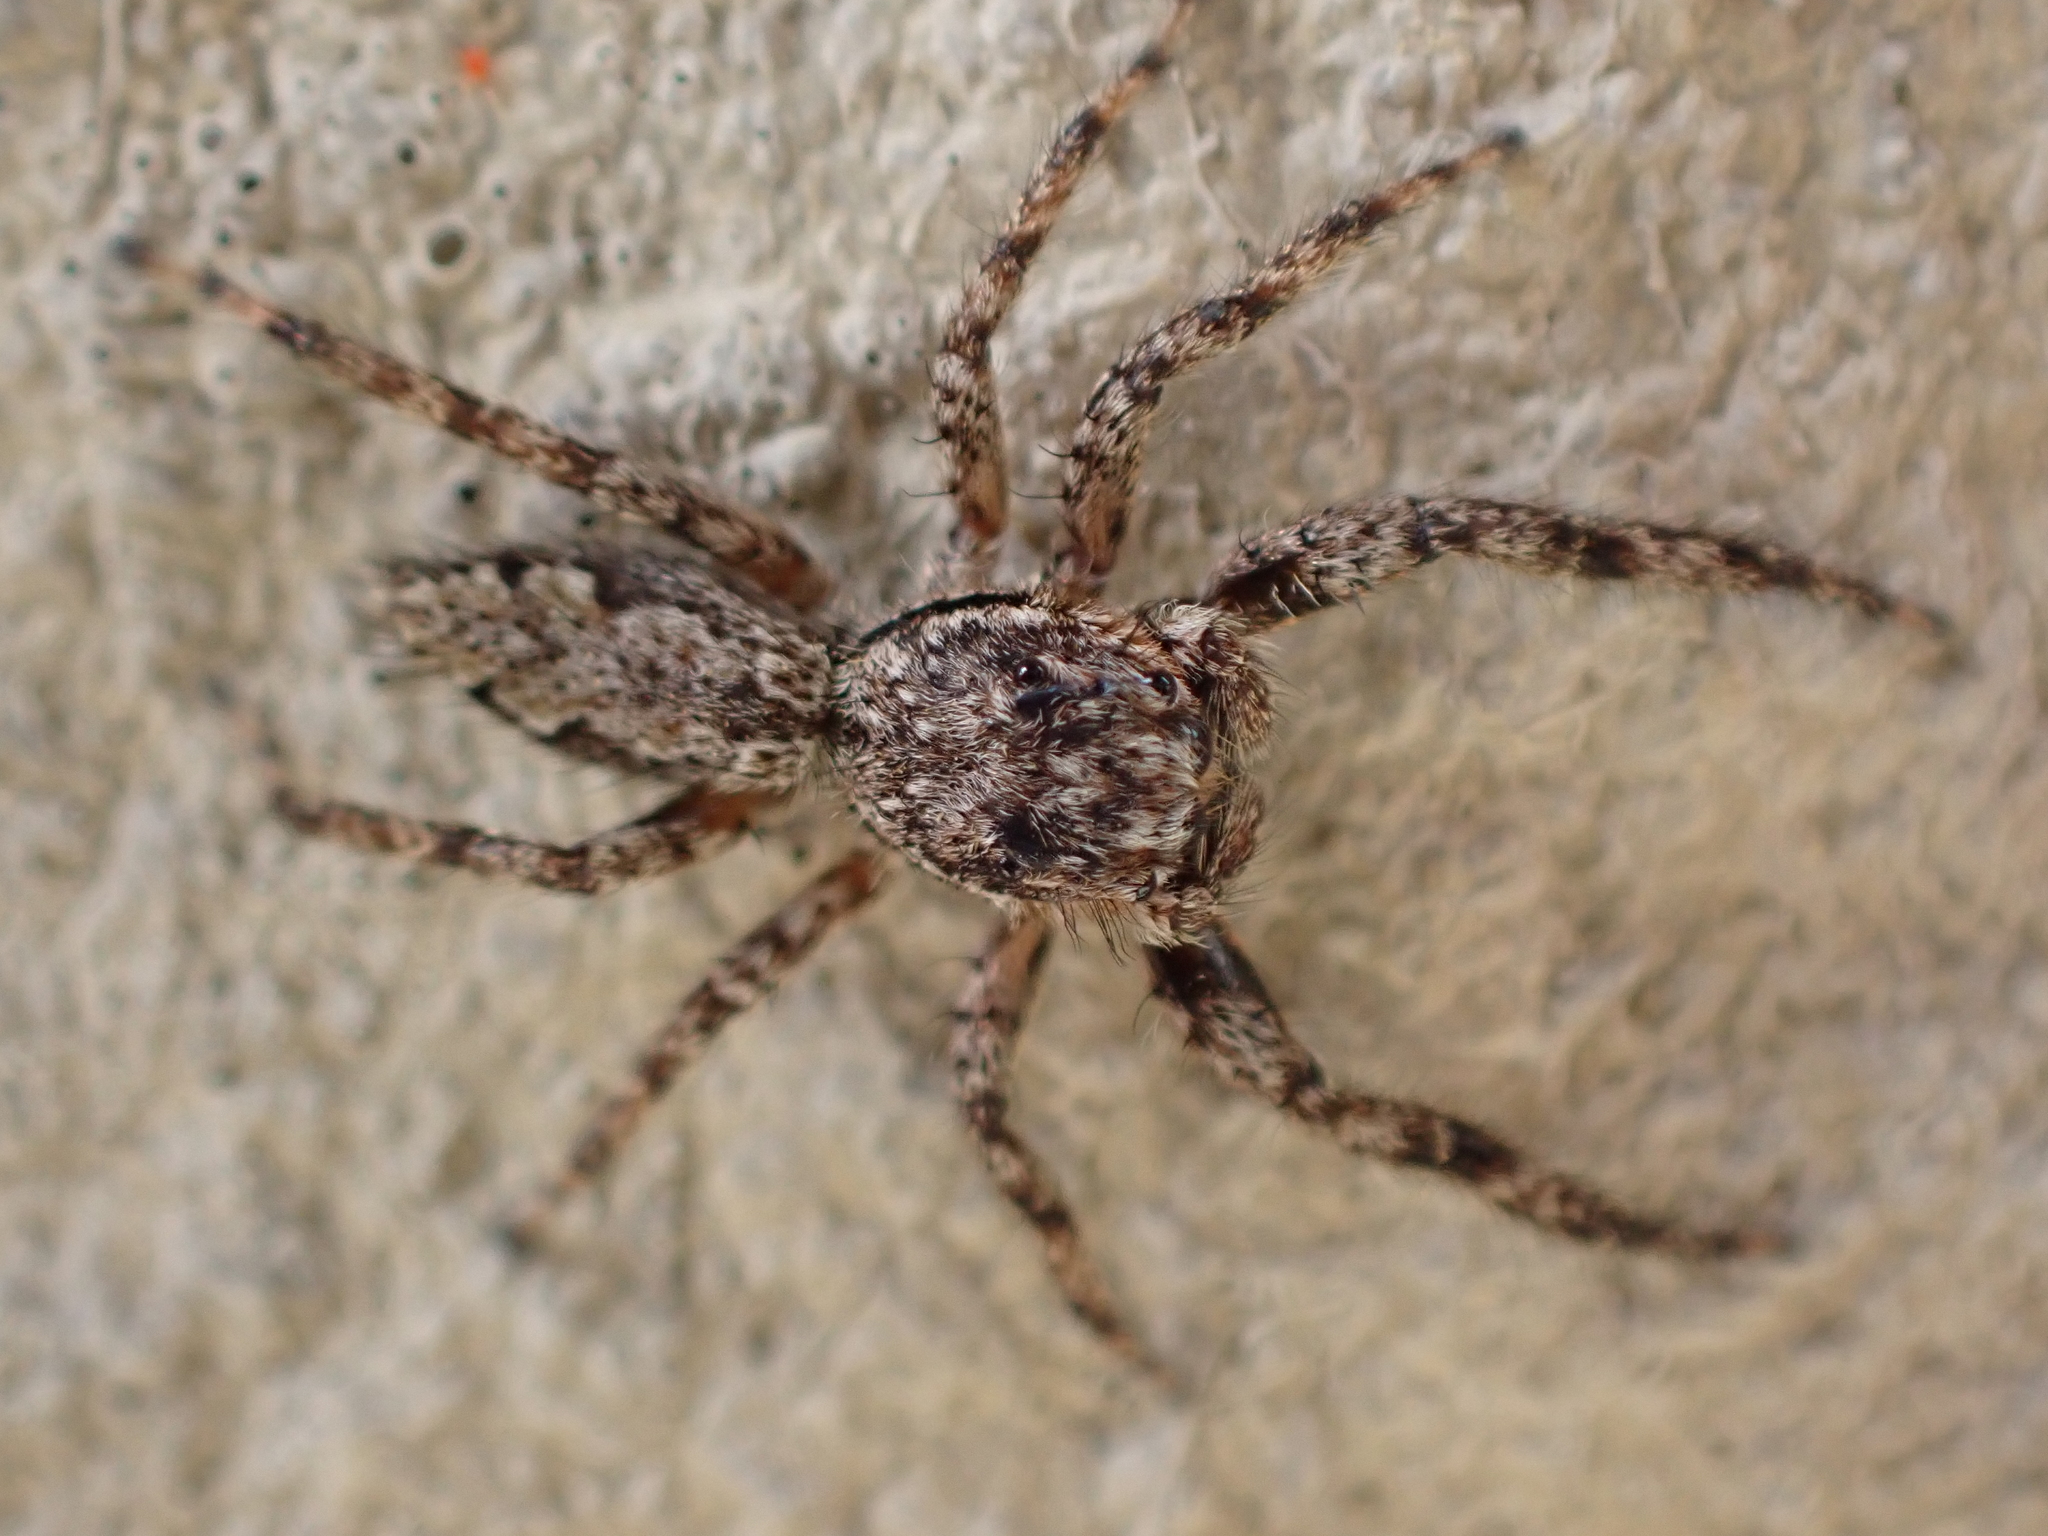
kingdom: Animalia
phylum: Arthropoda
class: Arachnida
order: Araneae
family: Salticidae
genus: Platycryptus
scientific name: Platycryptus undatus
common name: Tan jumping spider
